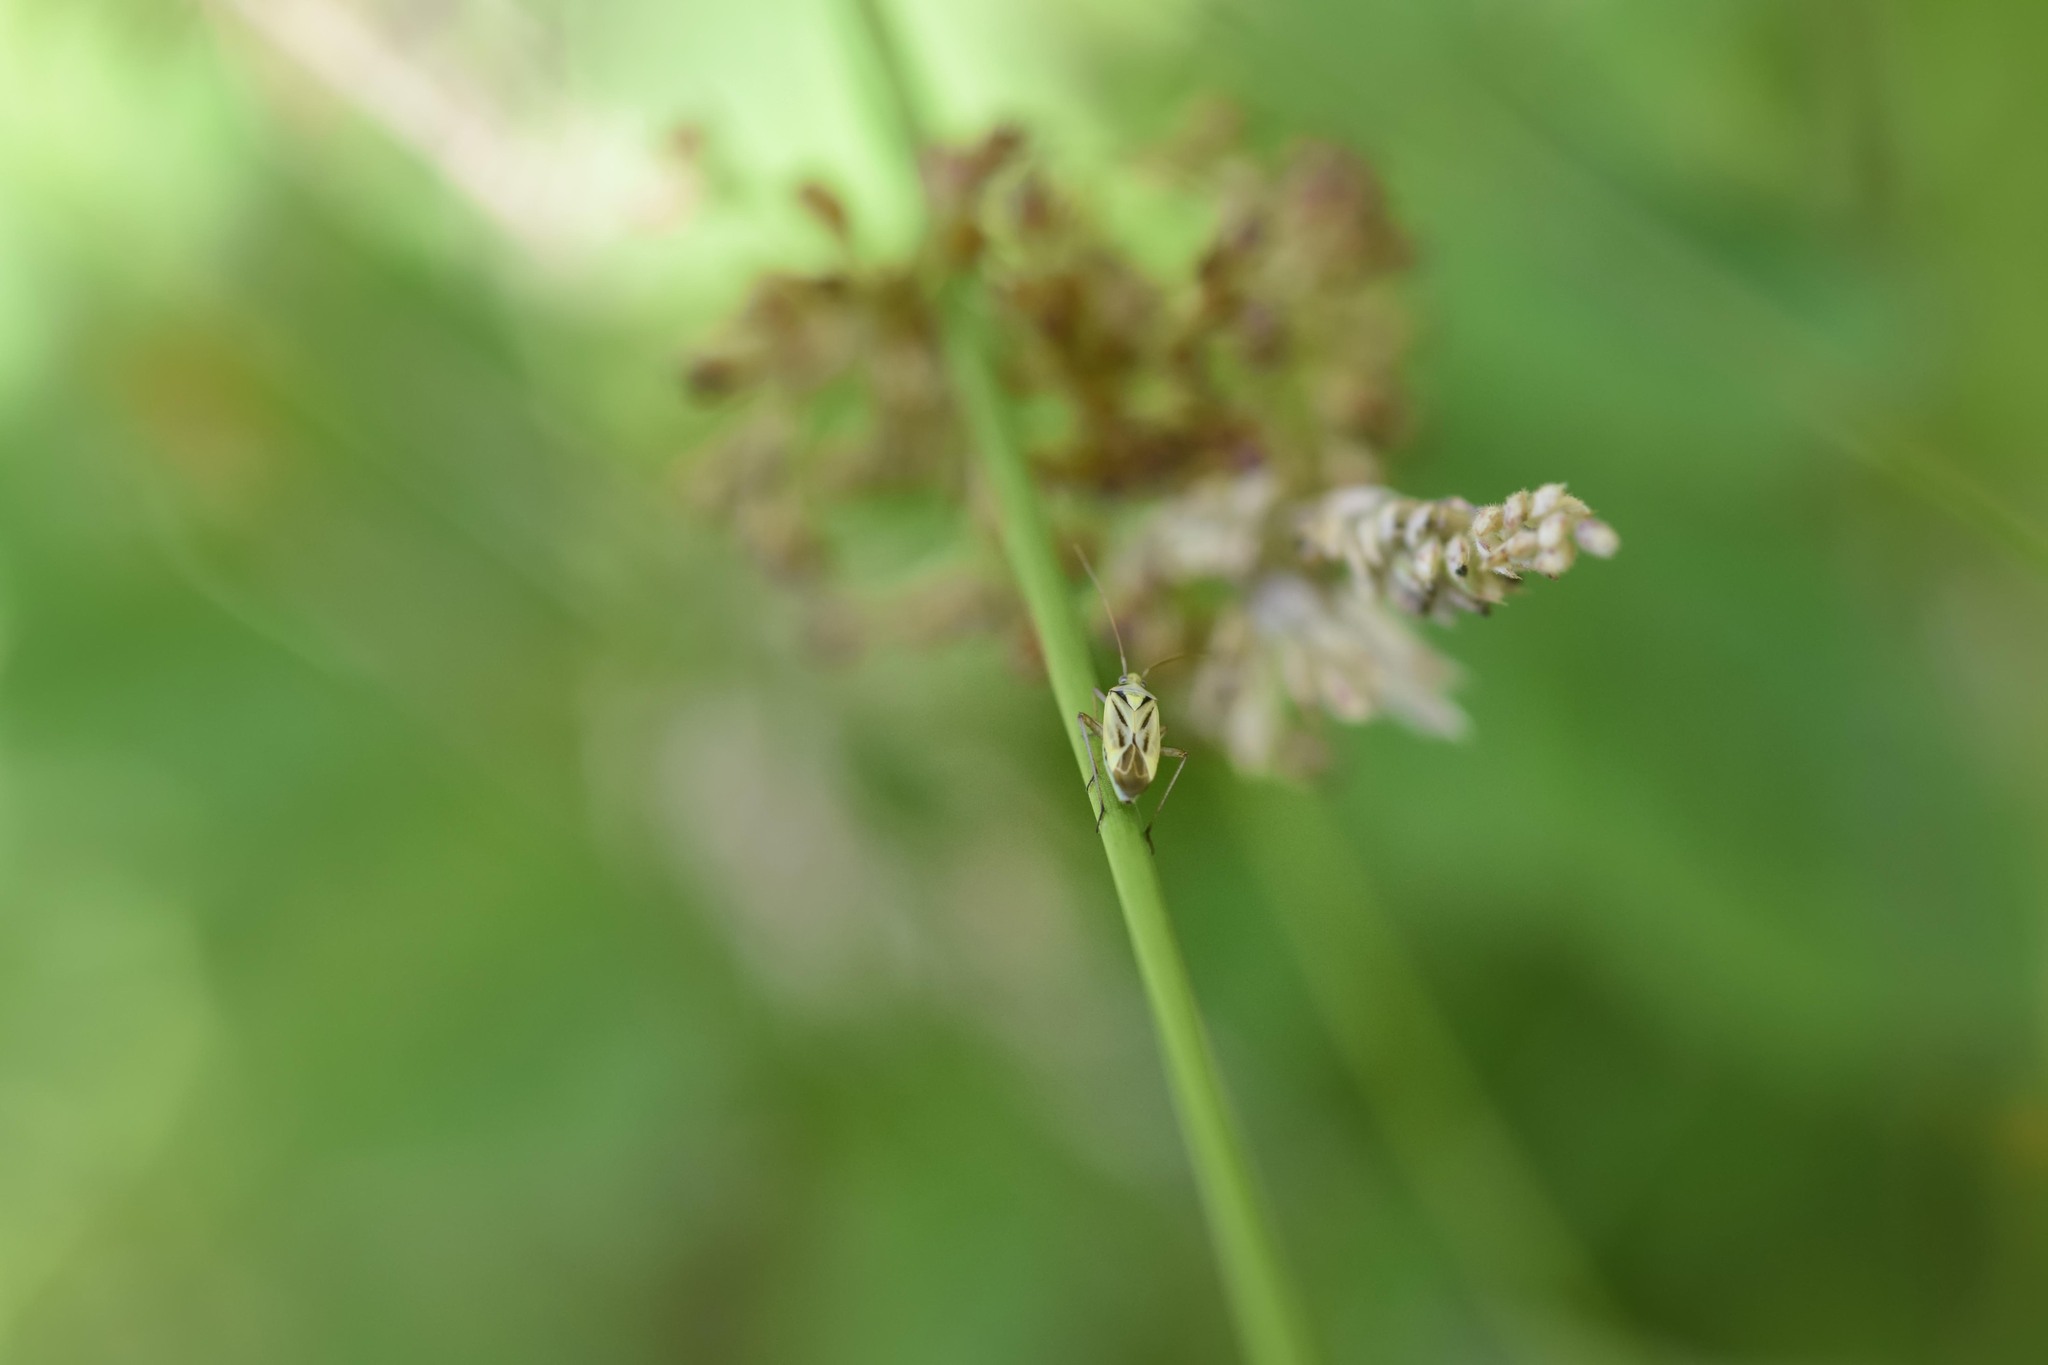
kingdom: Animalia
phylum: Arthropoda
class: Insecta
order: Hemiptera
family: Miridae
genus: Stenotus
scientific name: Stenotus binotatus
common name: Plant bug
